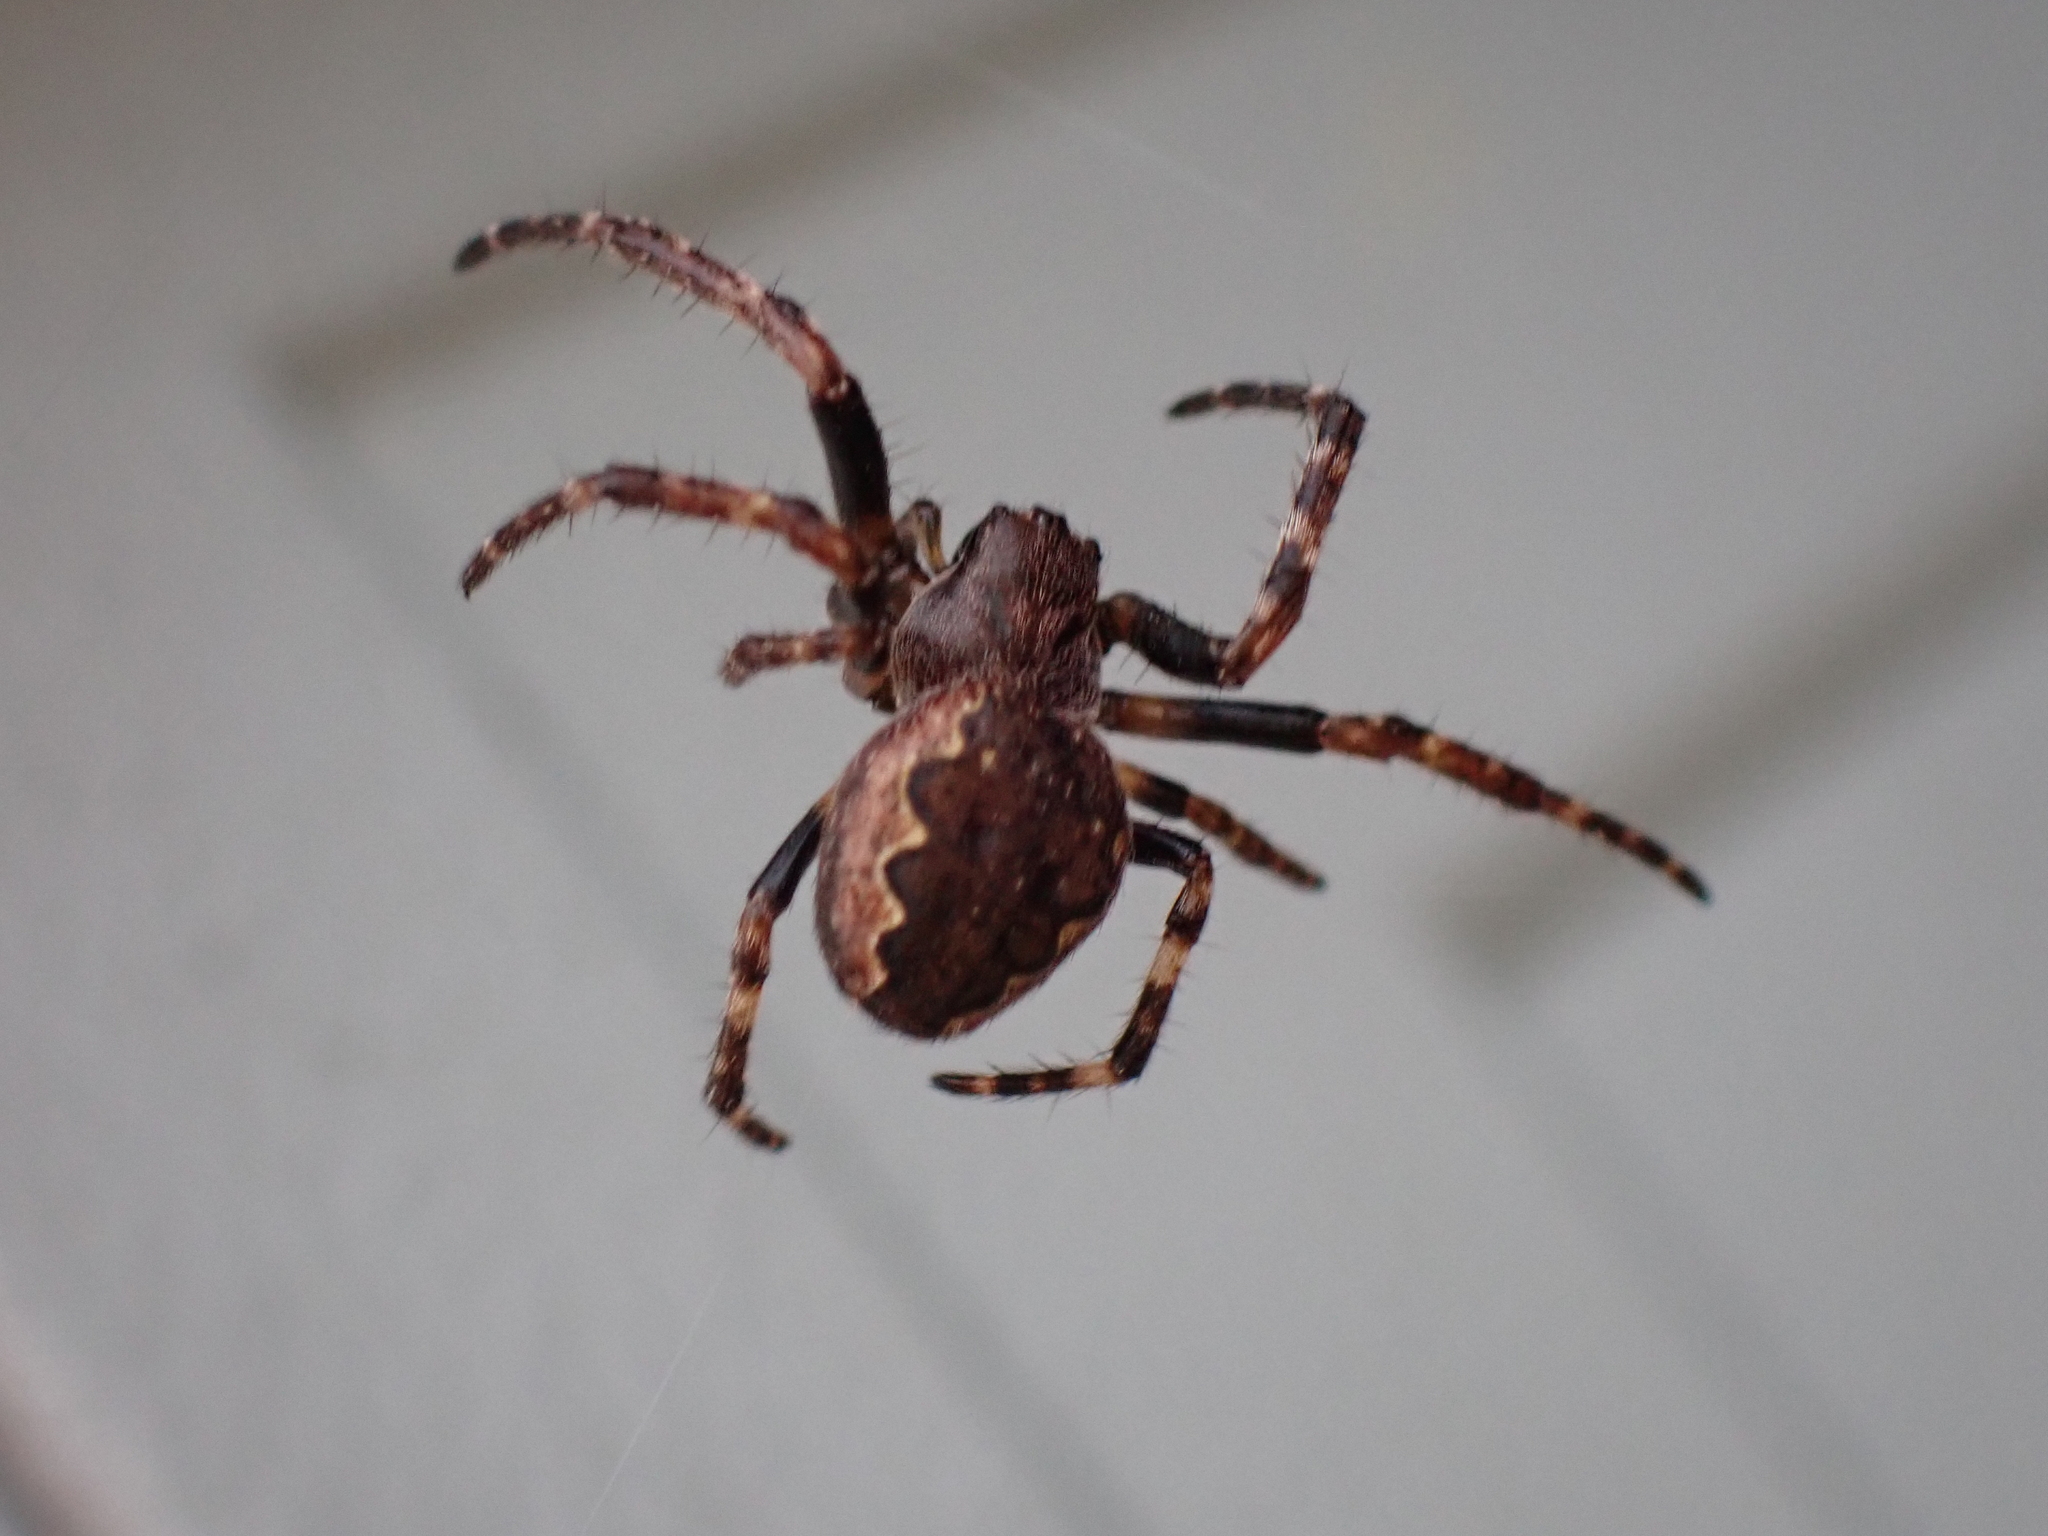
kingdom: Animalia
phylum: Arthropoda
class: Arachnida
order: Araneae
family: Araneidae
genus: Nuctenea
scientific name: Nuctenea umbratica
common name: Toad spider
